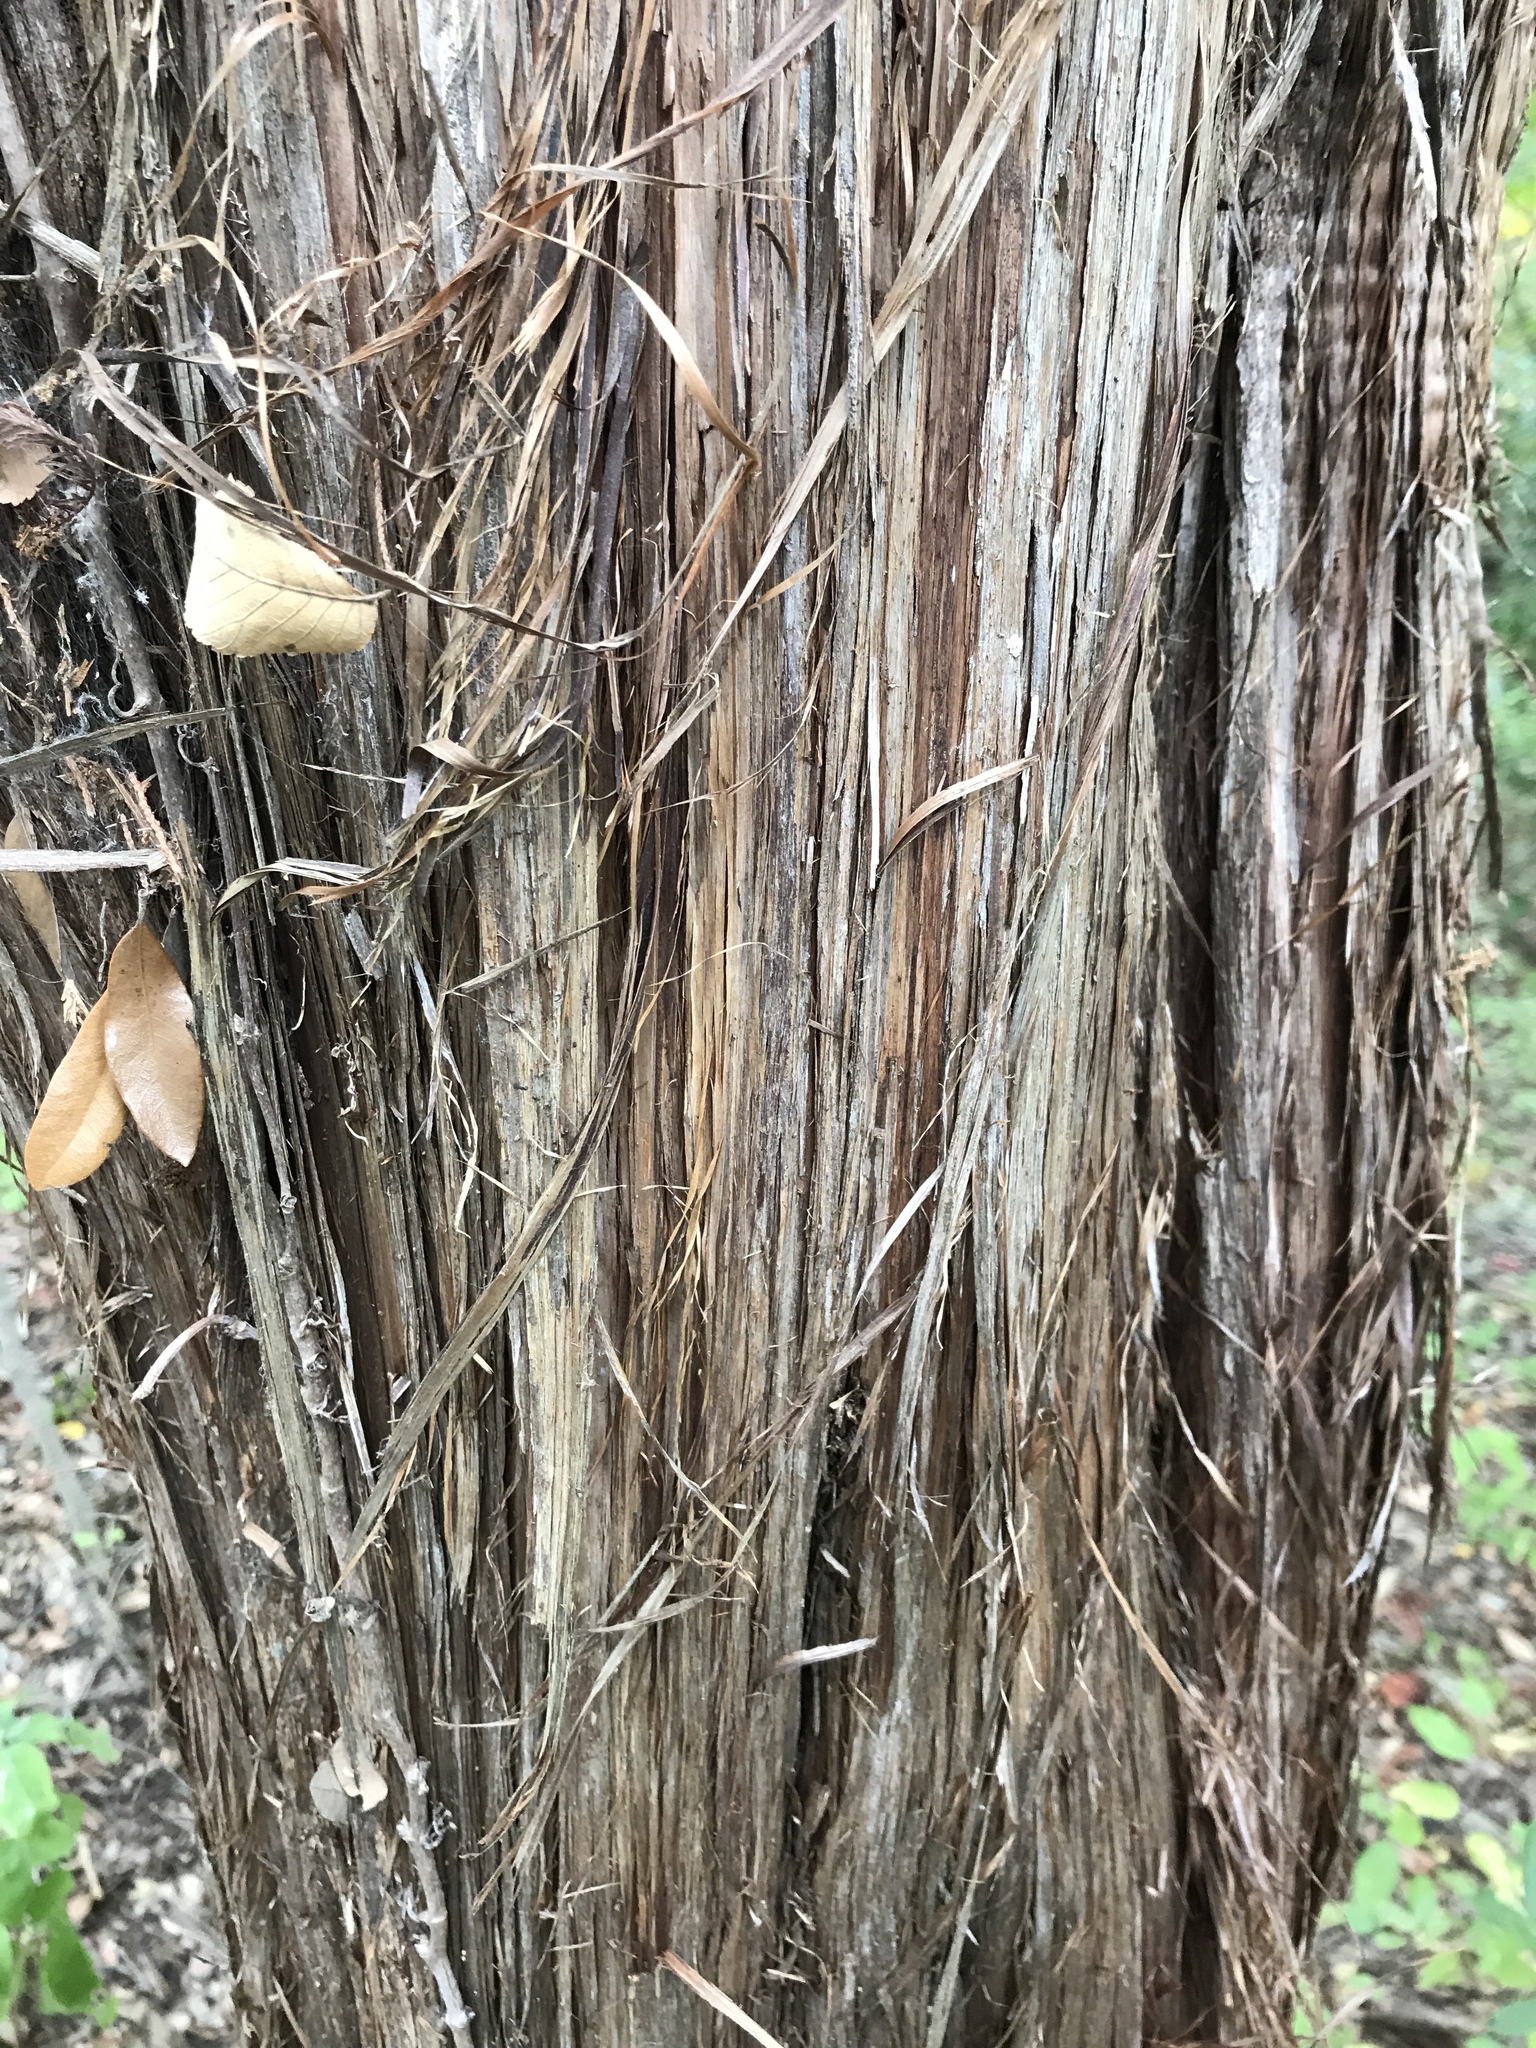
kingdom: Plantae
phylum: Tracheophyta
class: Pinopsida
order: Pinales
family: Cupressaceae
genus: Juniperus
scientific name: Juniperus ashei
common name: Mexican juniper
